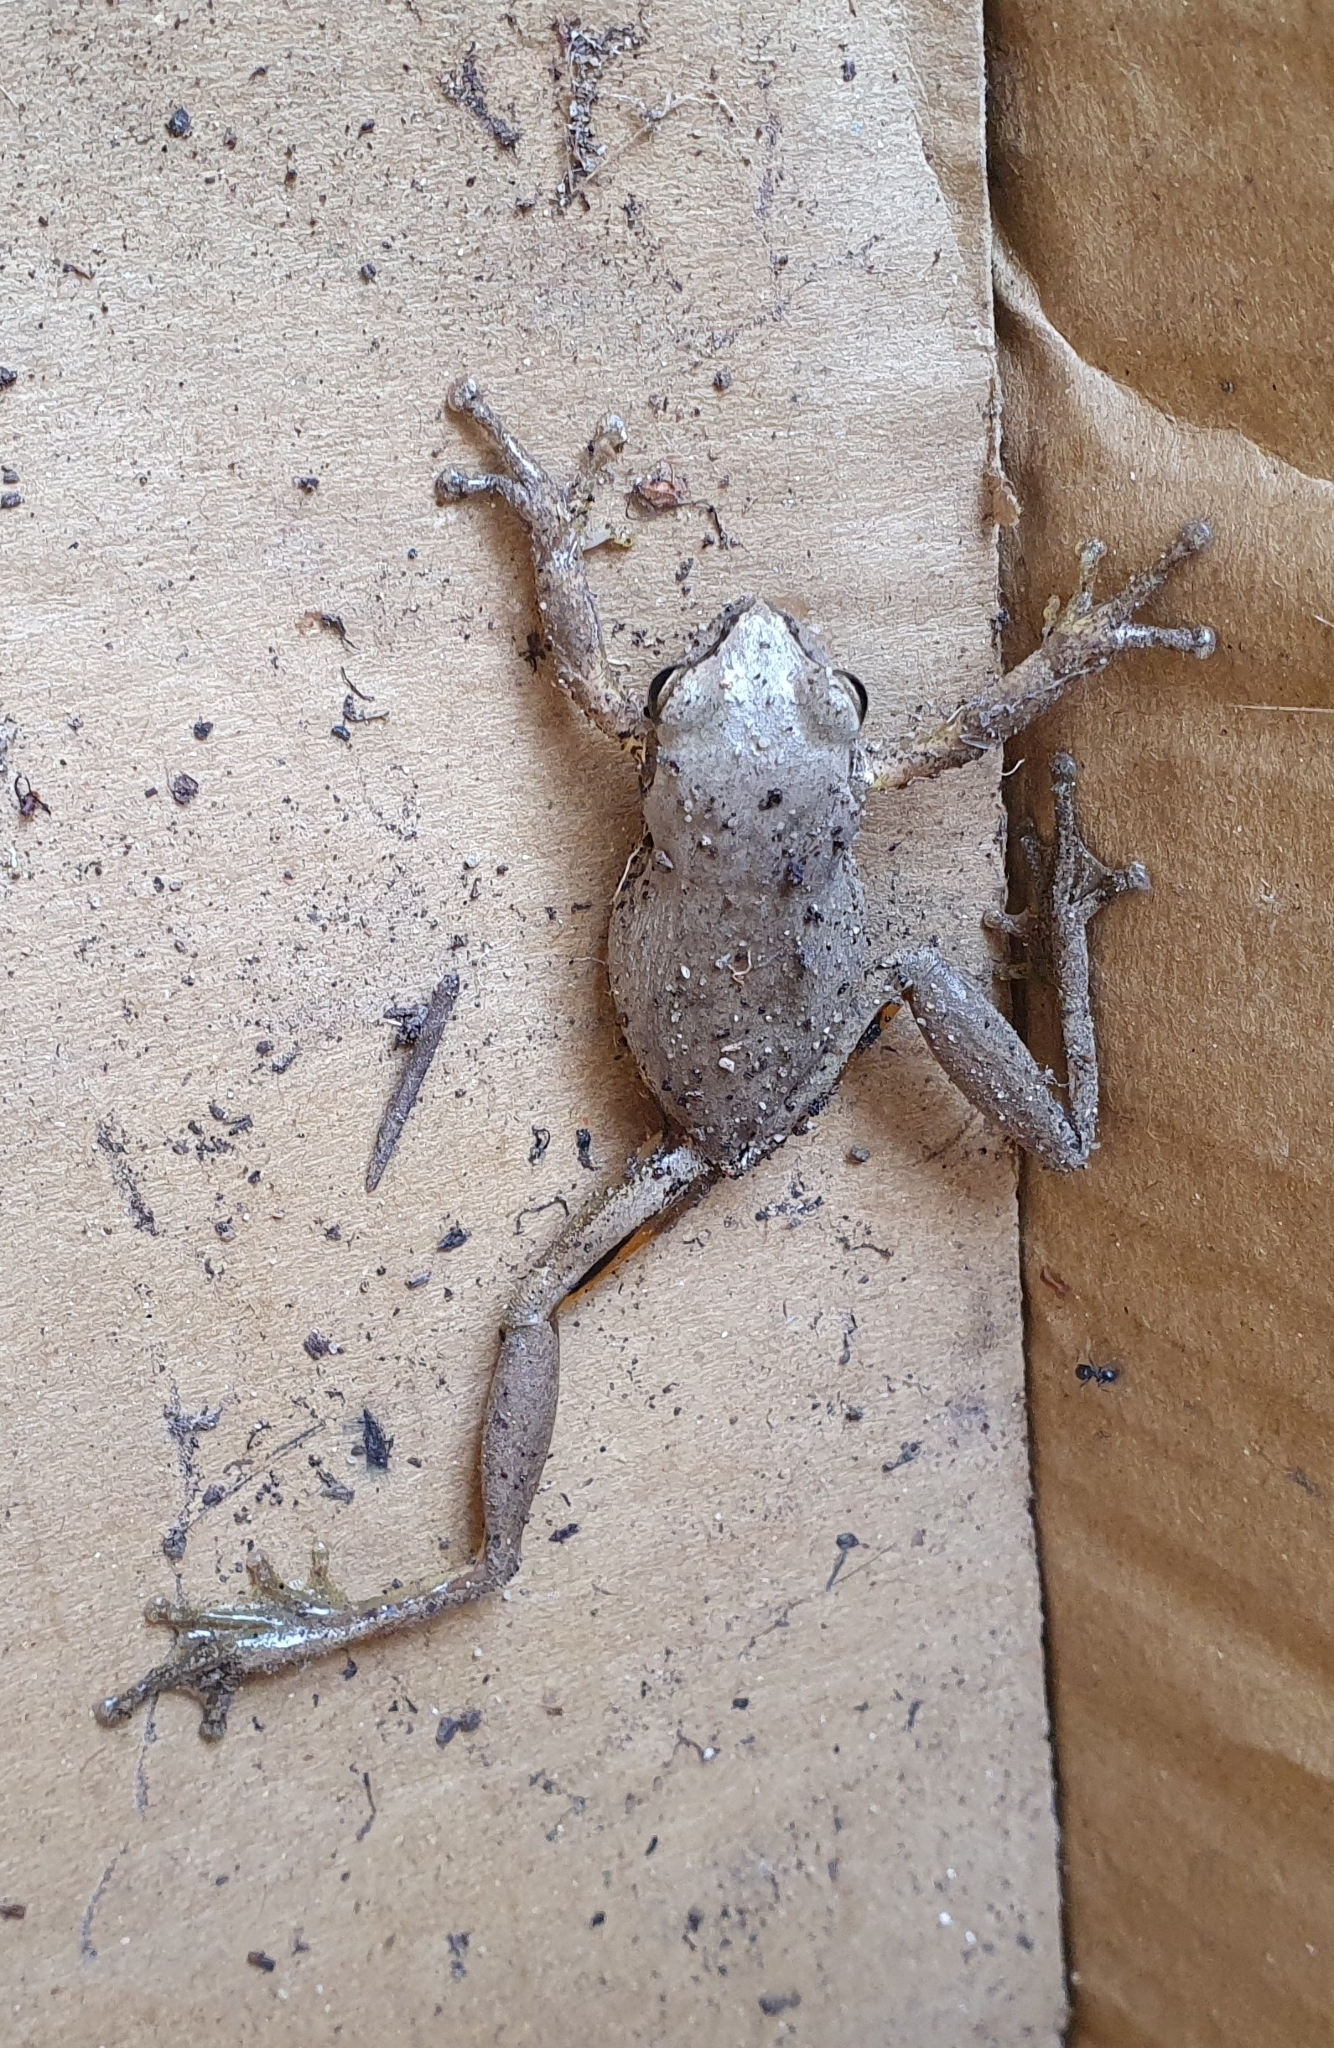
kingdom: Animalia
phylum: Chordata
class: Amphibia
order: Anura
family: Pelodryadidae
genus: Litoria
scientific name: Litoria
